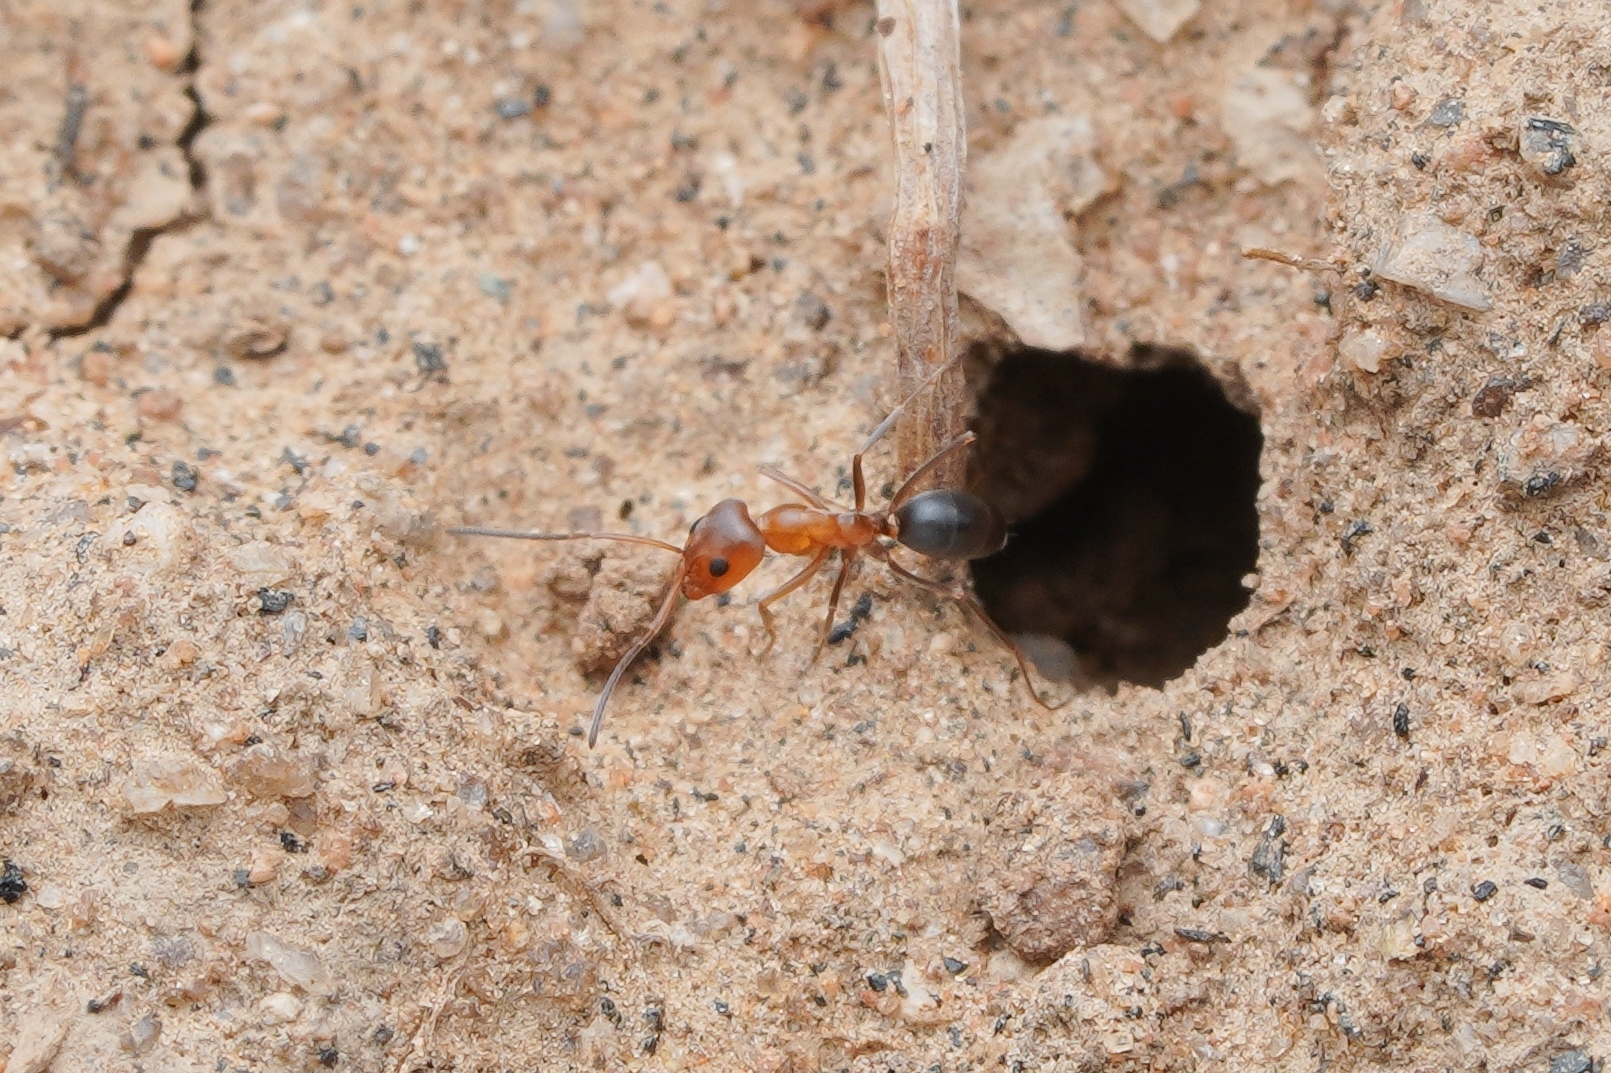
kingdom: Animalia
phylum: Arthropoda
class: Insecta
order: Hymenoptera
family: Formicidae
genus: Dorymyrmex
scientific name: Dorymyrmex bicolor
